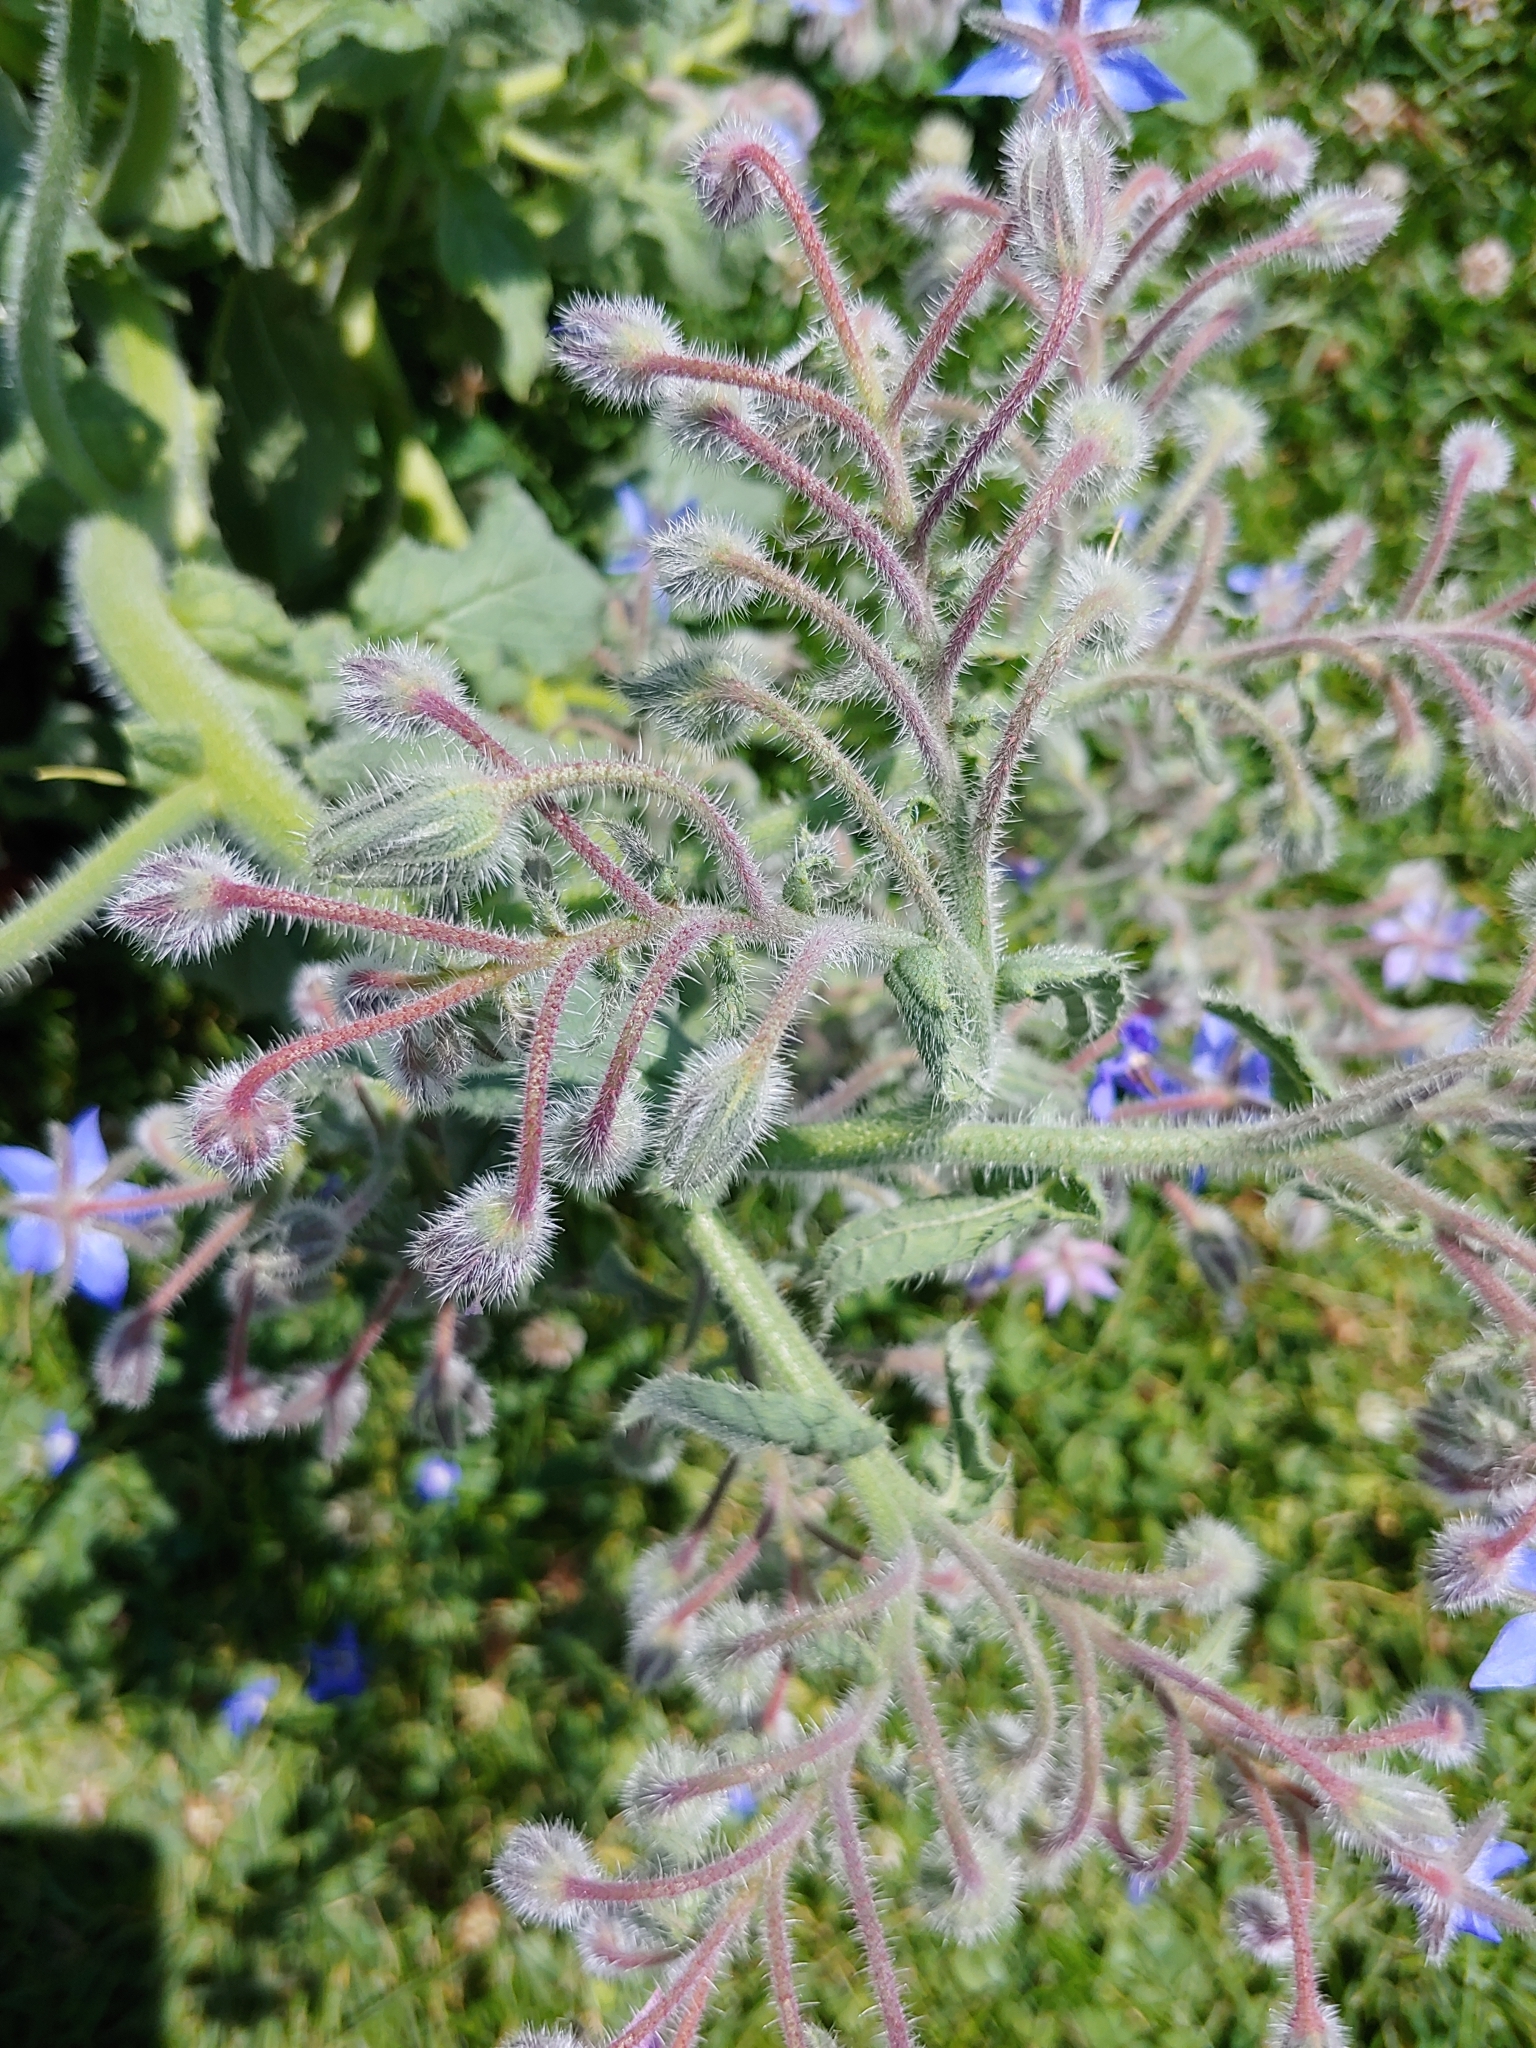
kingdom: Plantae
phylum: Tracheophyta
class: Magnoliopsida
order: Boraginales
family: Boraginaceae
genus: Borago
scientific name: Borago officinalis
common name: Borage
